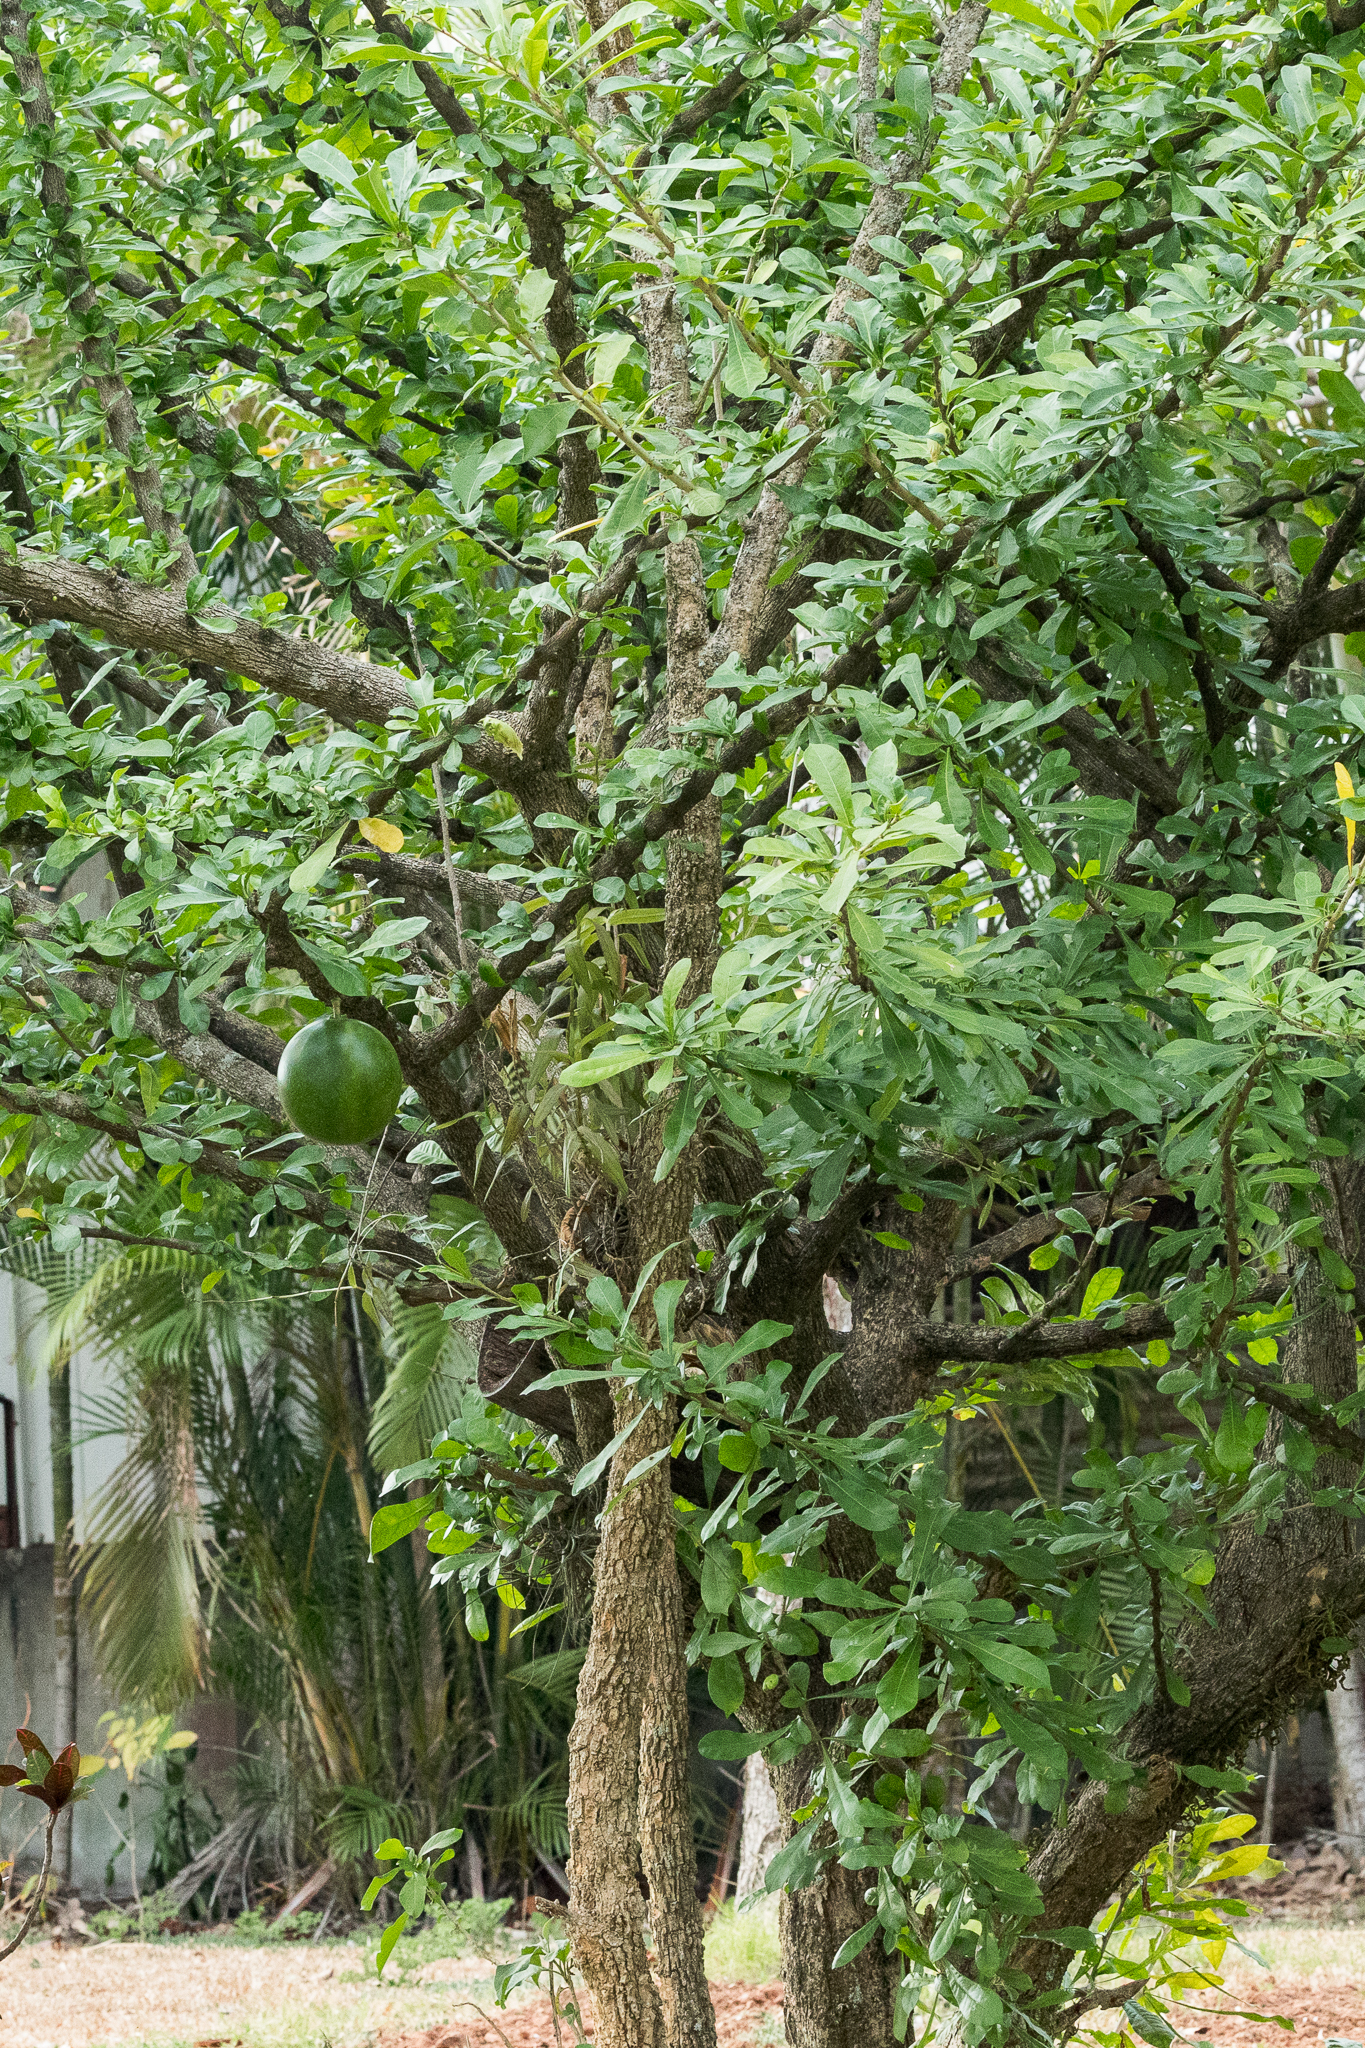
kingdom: Plantae
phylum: Tracheophyta
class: Magnoliopsida
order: Lamiales
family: Bignoniaceae
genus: Crescentia
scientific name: Crescentia cujete
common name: Calabash
